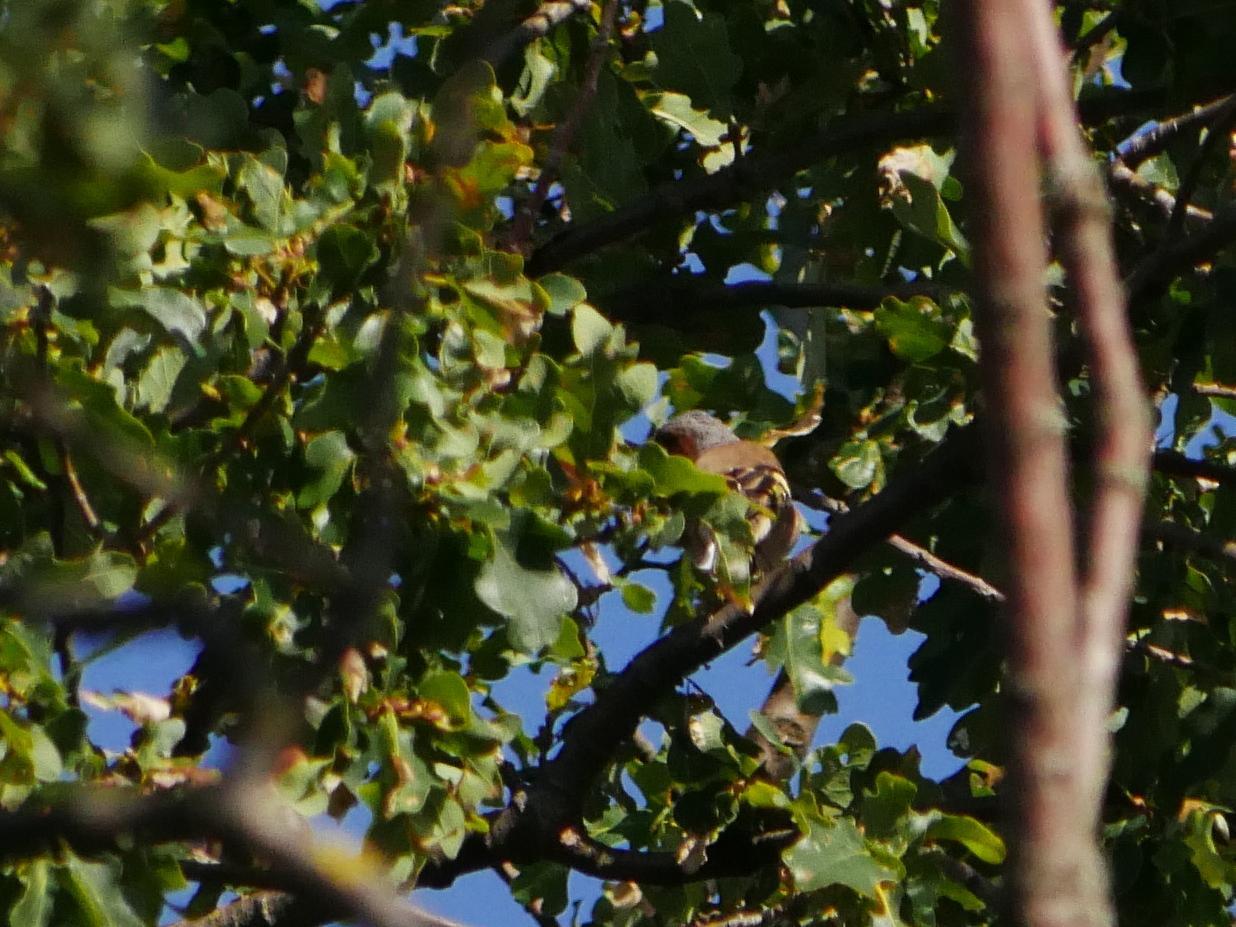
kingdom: Animalia
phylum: Chordata
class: Aves
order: Passeriformes
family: Fringillidae
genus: Fringilla
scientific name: Fringilla coelebs
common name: Common chaffinch
